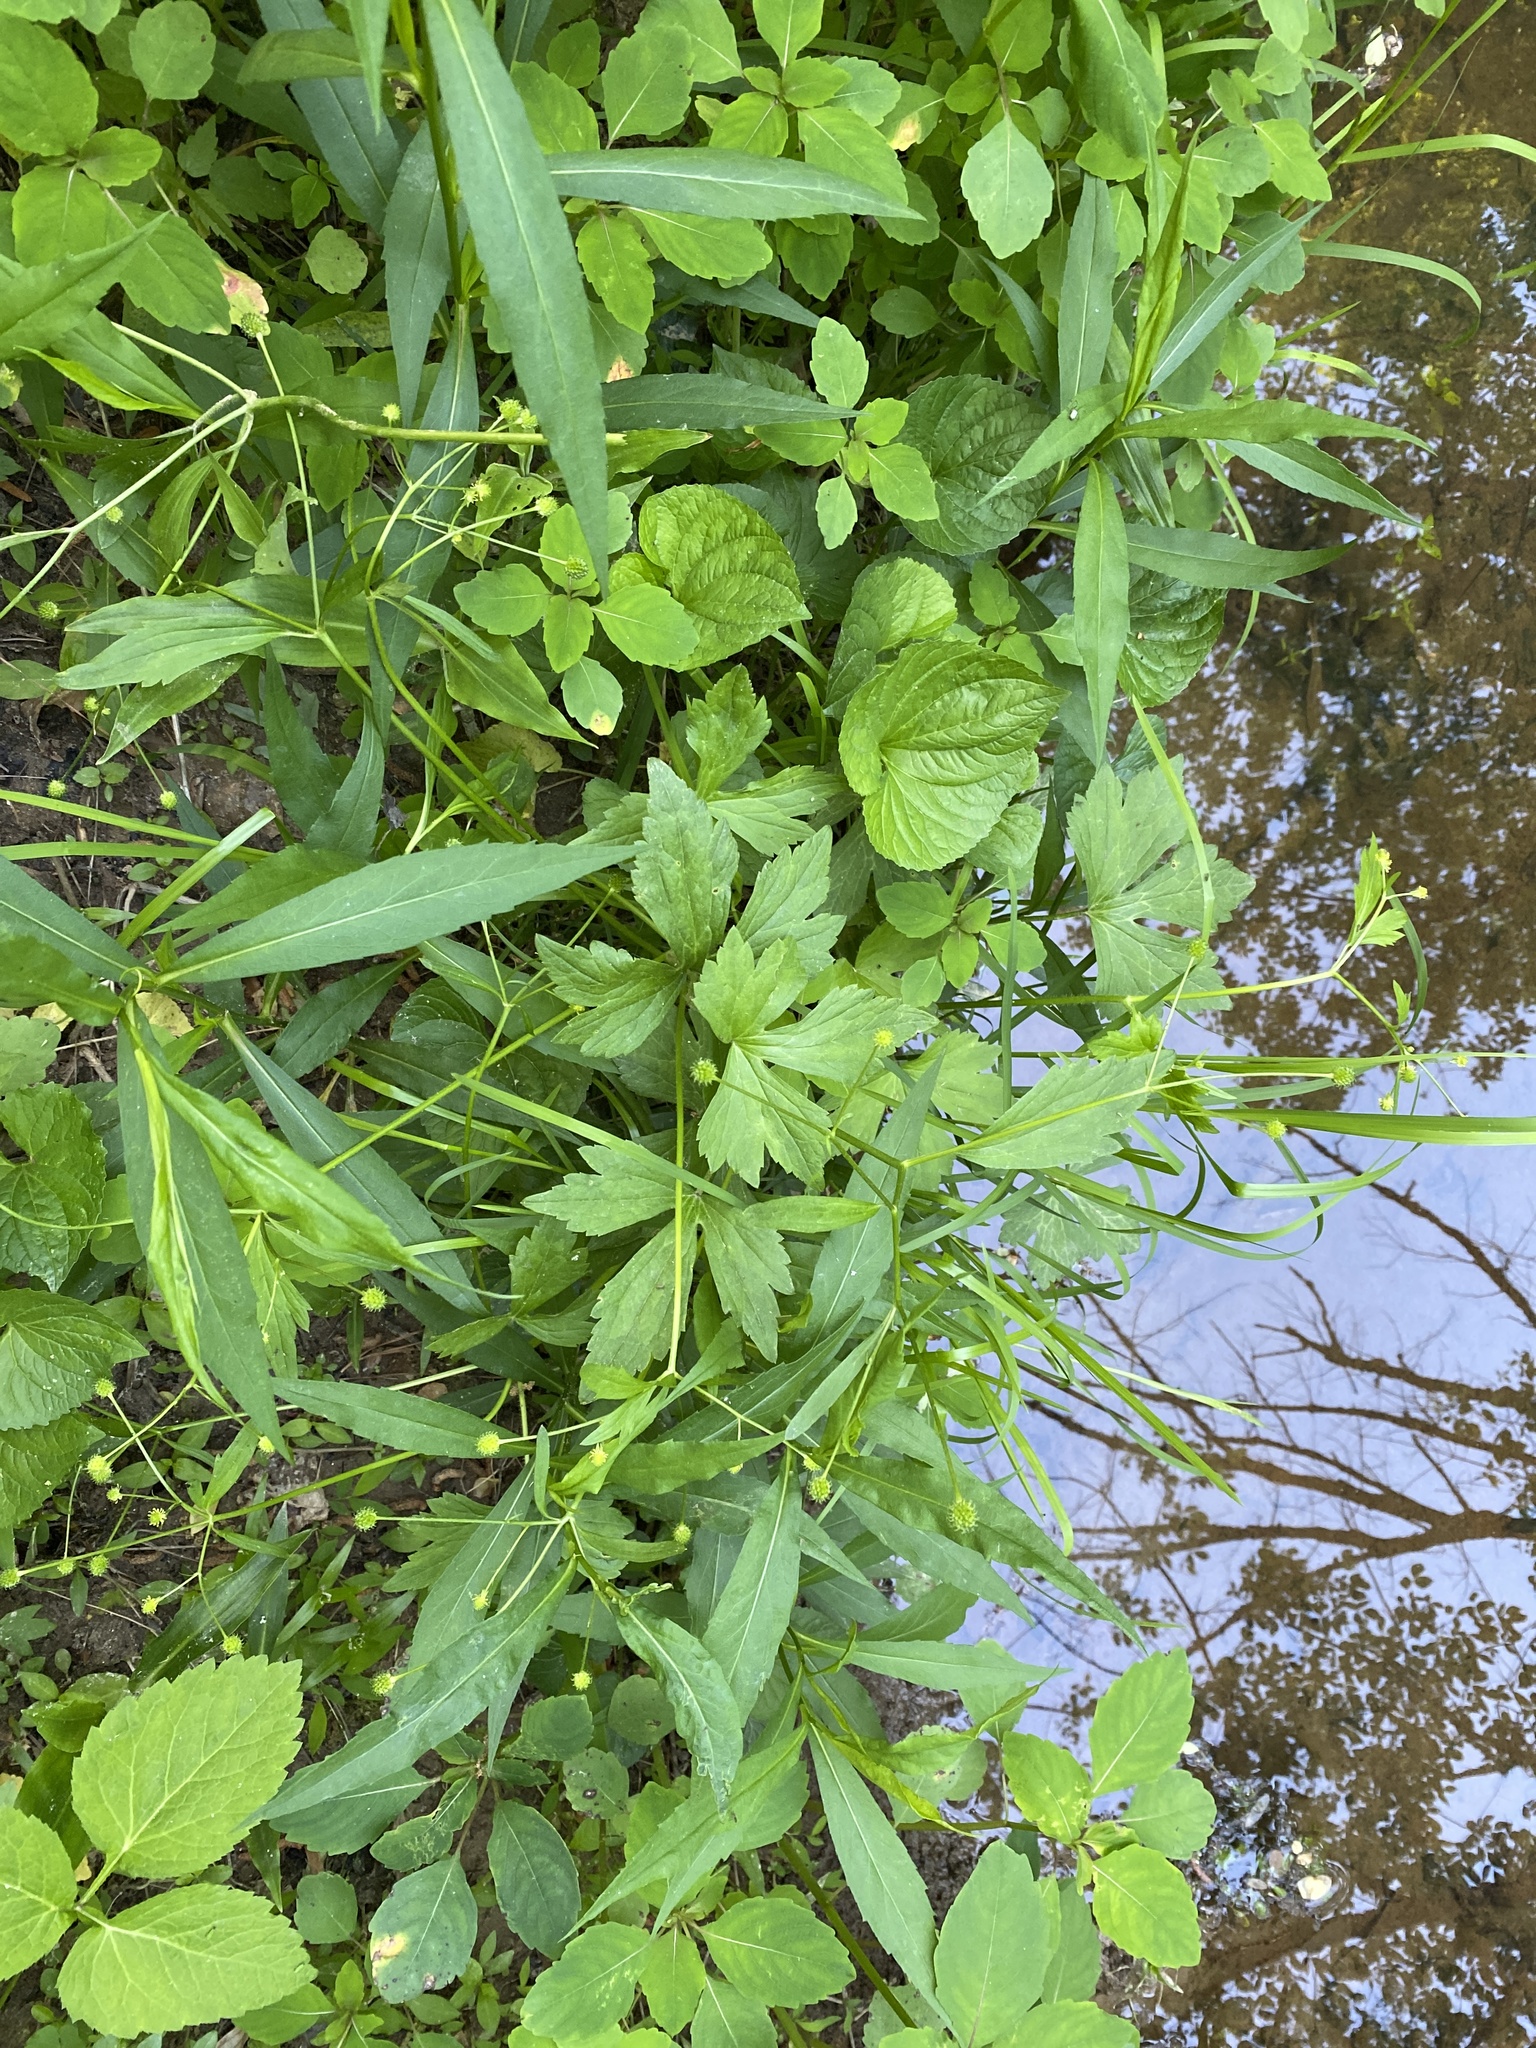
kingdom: Plantae
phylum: Tracheophyta
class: Magnoliopsida
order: Ranunculales
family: Ranunculaceae
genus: Ranunculus
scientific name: Ranunculus recurvatus
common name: Blisterwort
